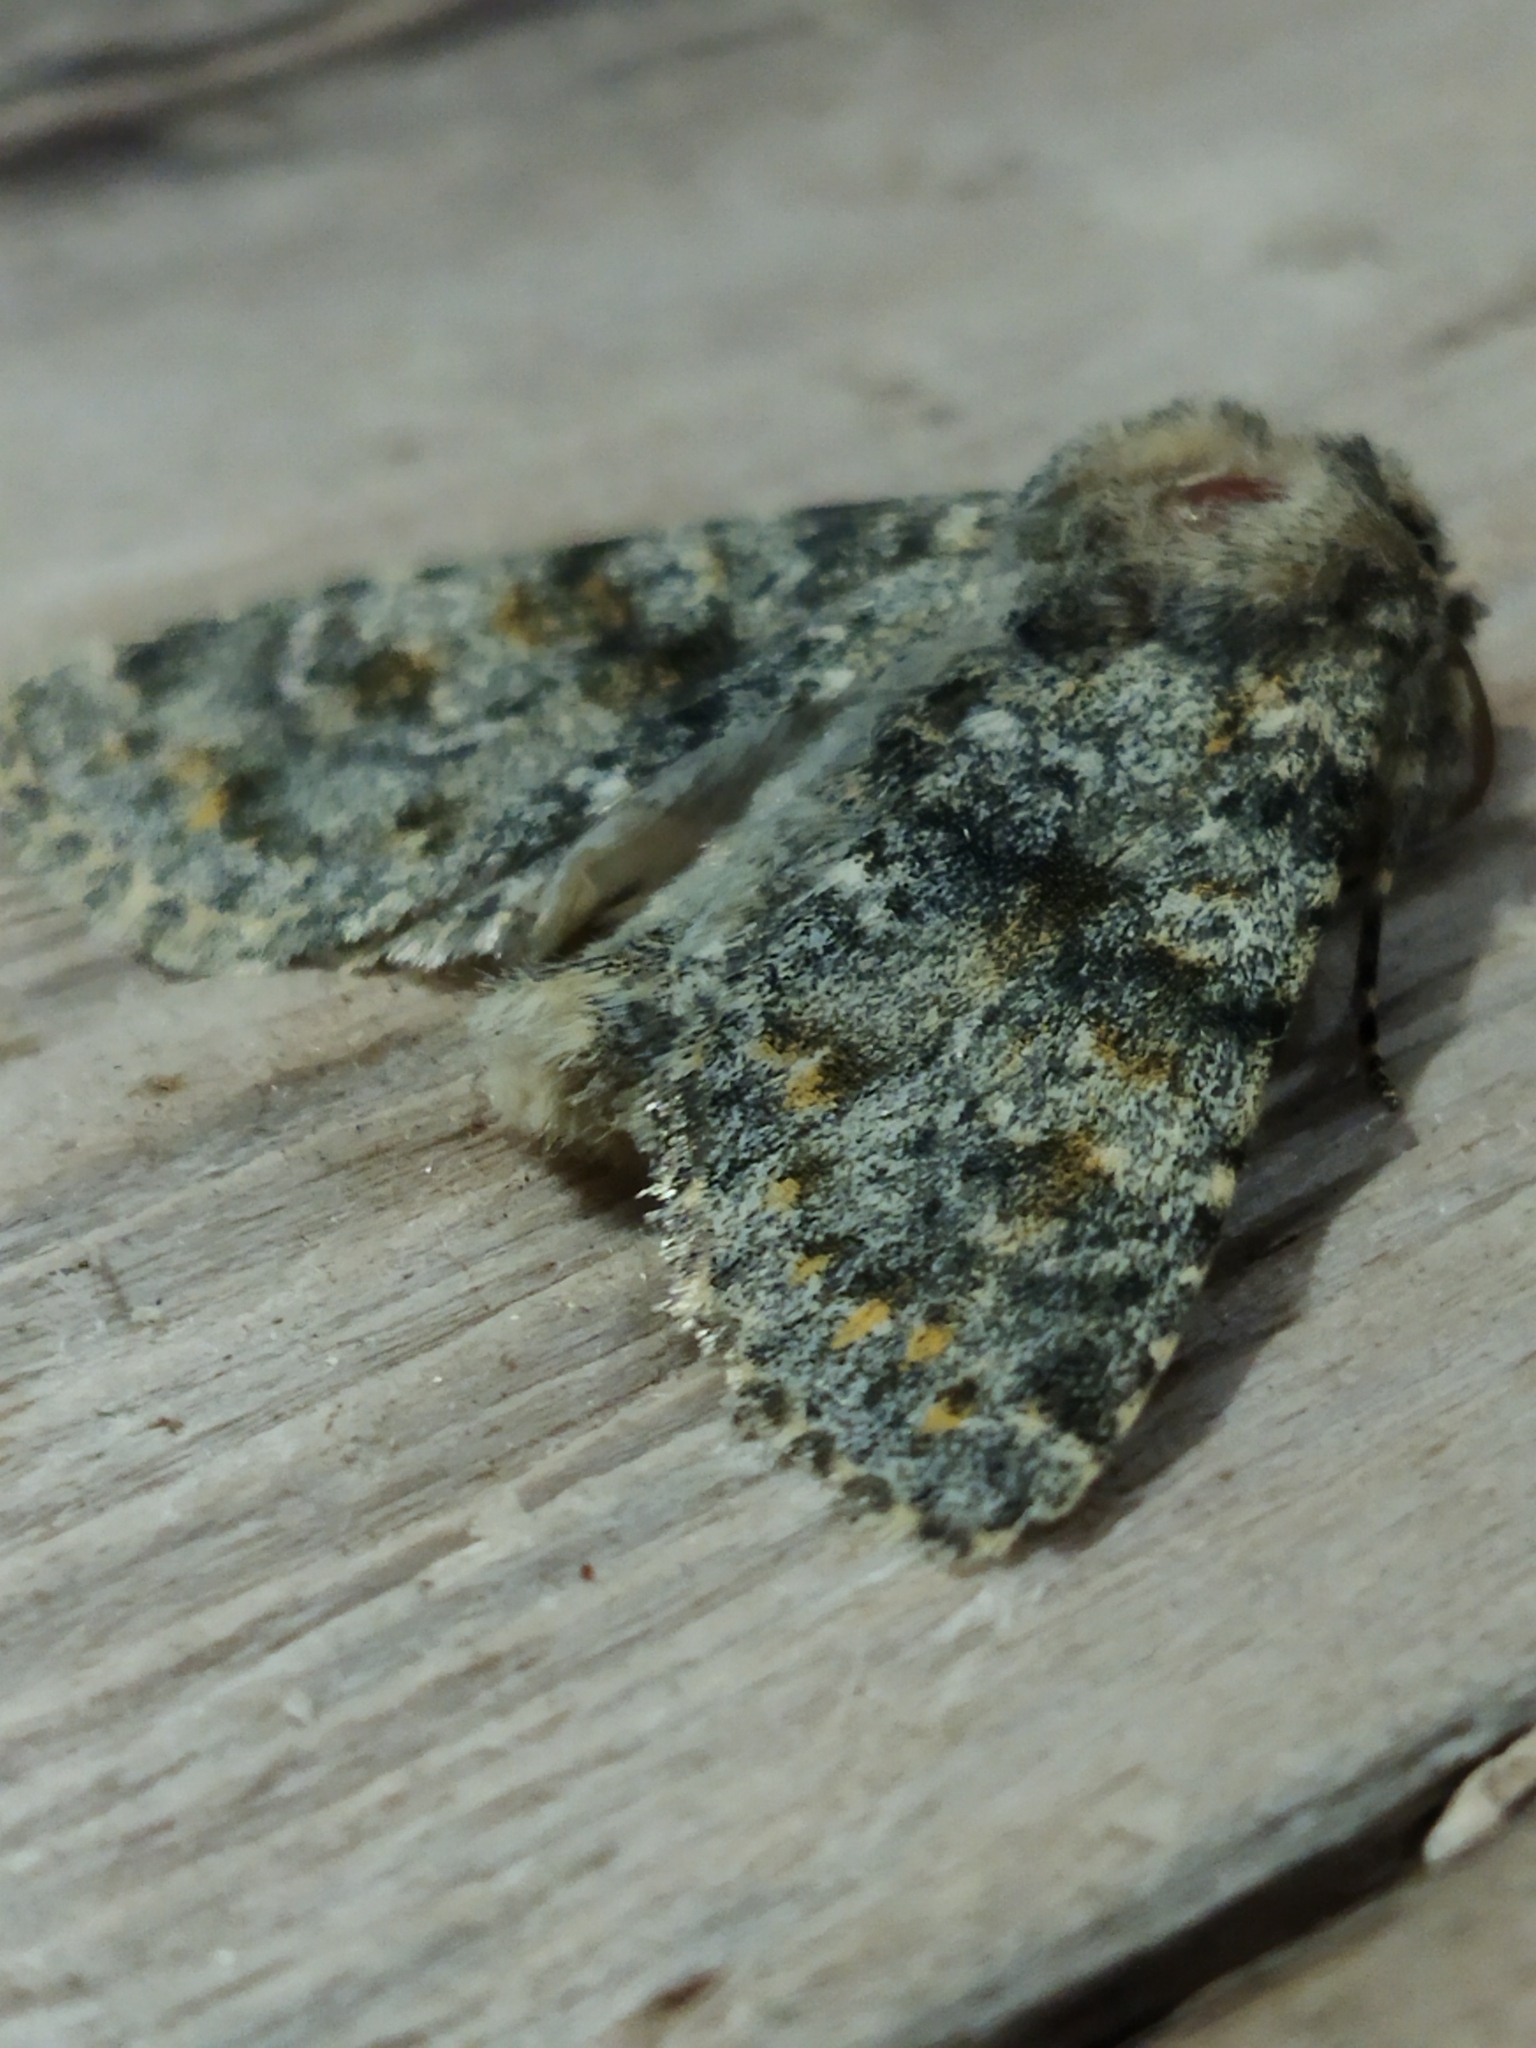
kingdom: Animalia
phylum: Arthropoda
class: Insecta
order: Lepidoptera
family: Noctuidae
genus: Polymixis
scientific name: Polymixis rufocincta
